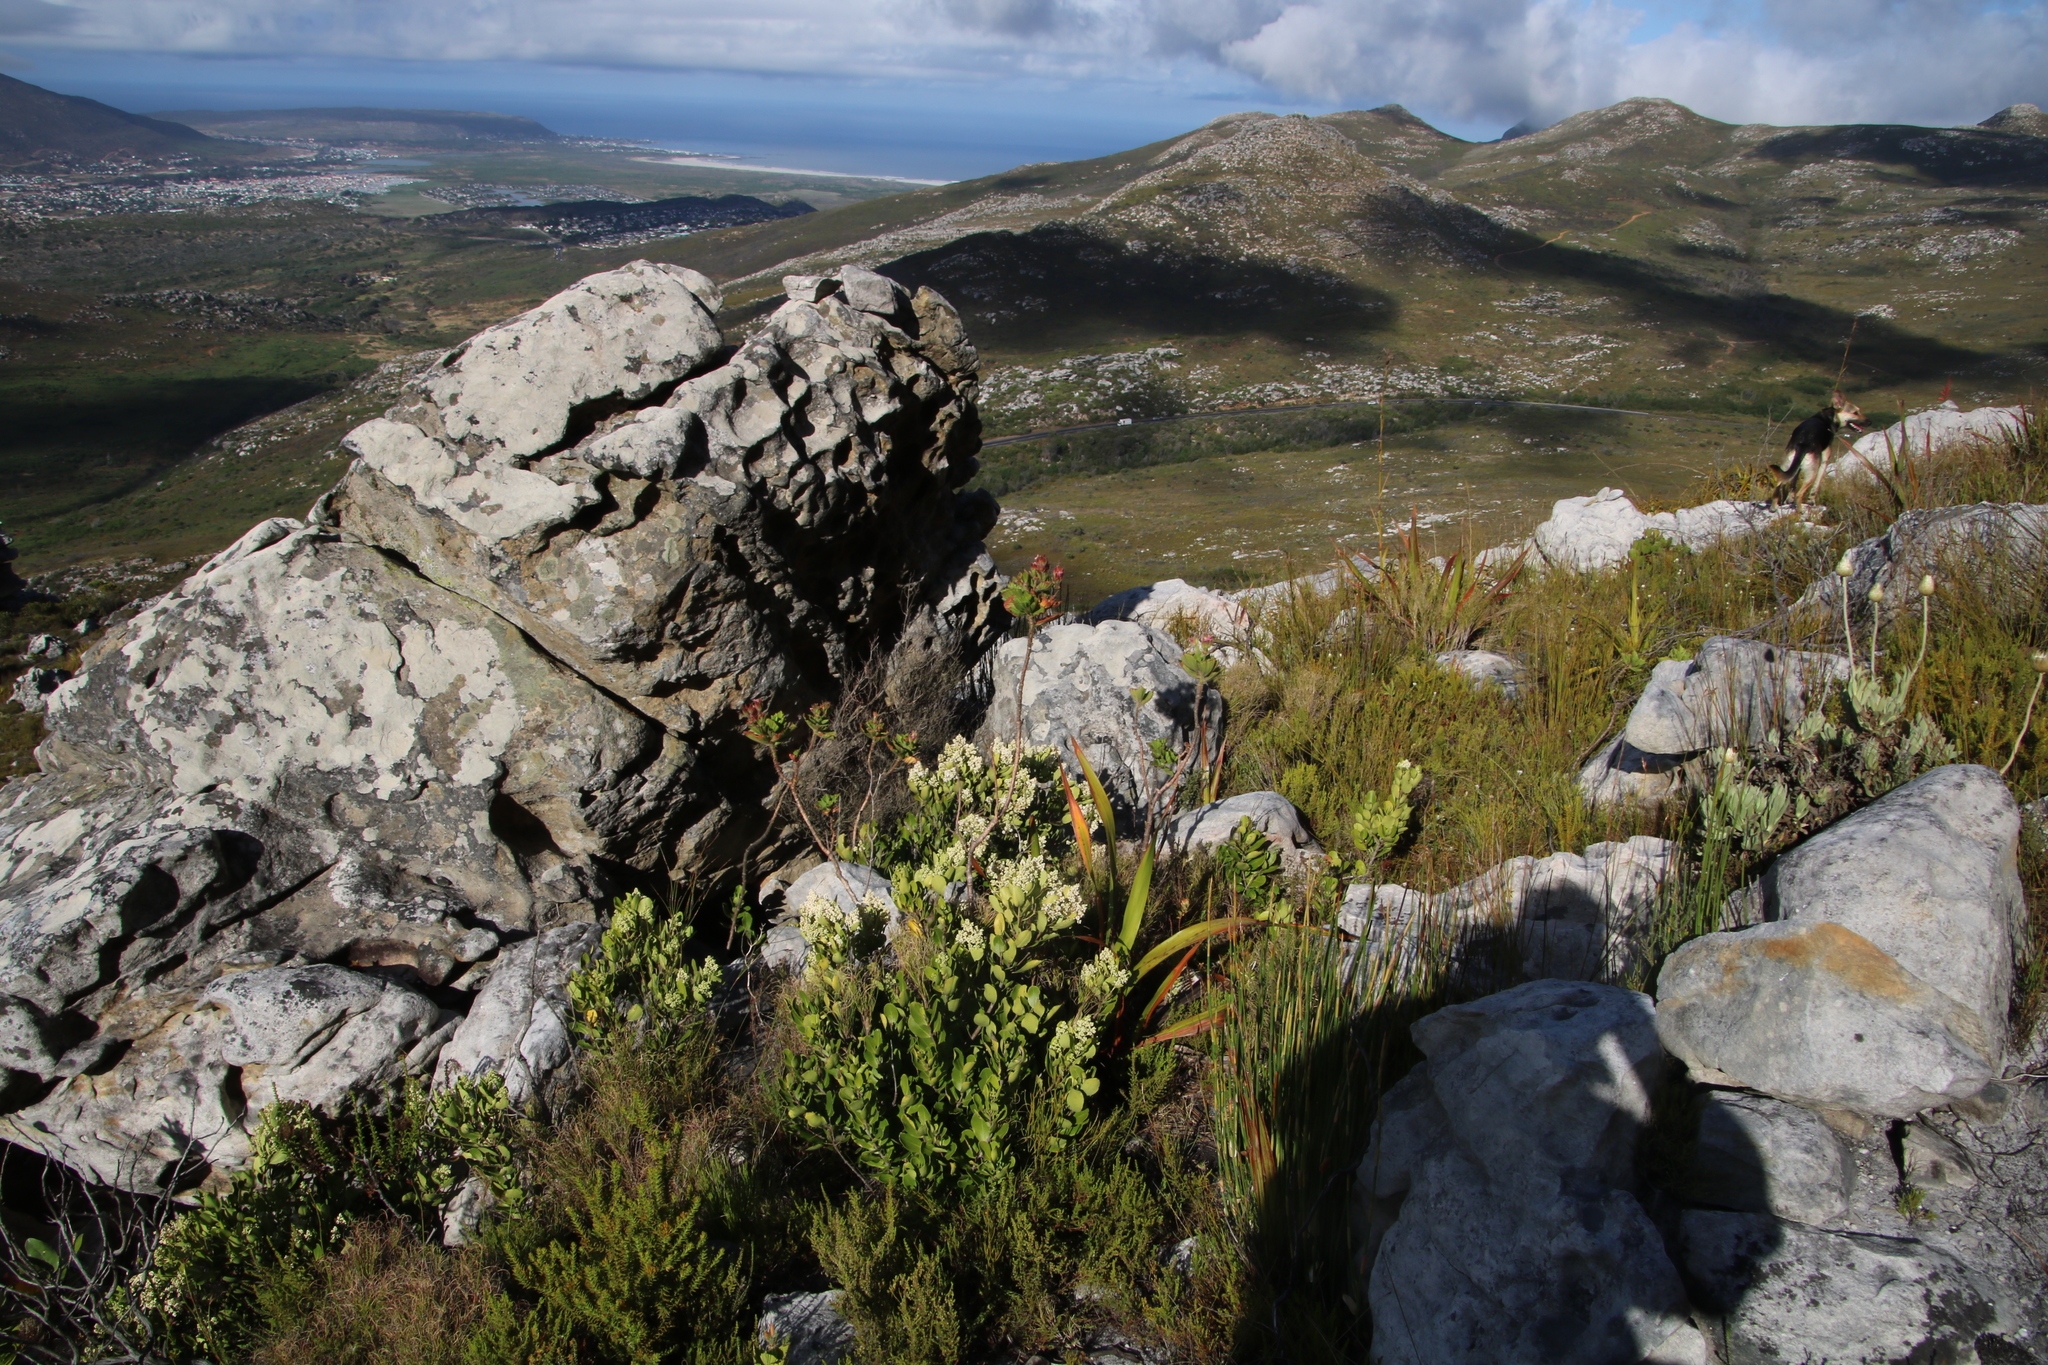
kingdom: Plantae
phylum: Tracheophyta
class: Magnoliopsida
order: Lamiales
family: Oleaceae
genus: Olea
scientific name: Olea capensis
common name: Black ironwood
